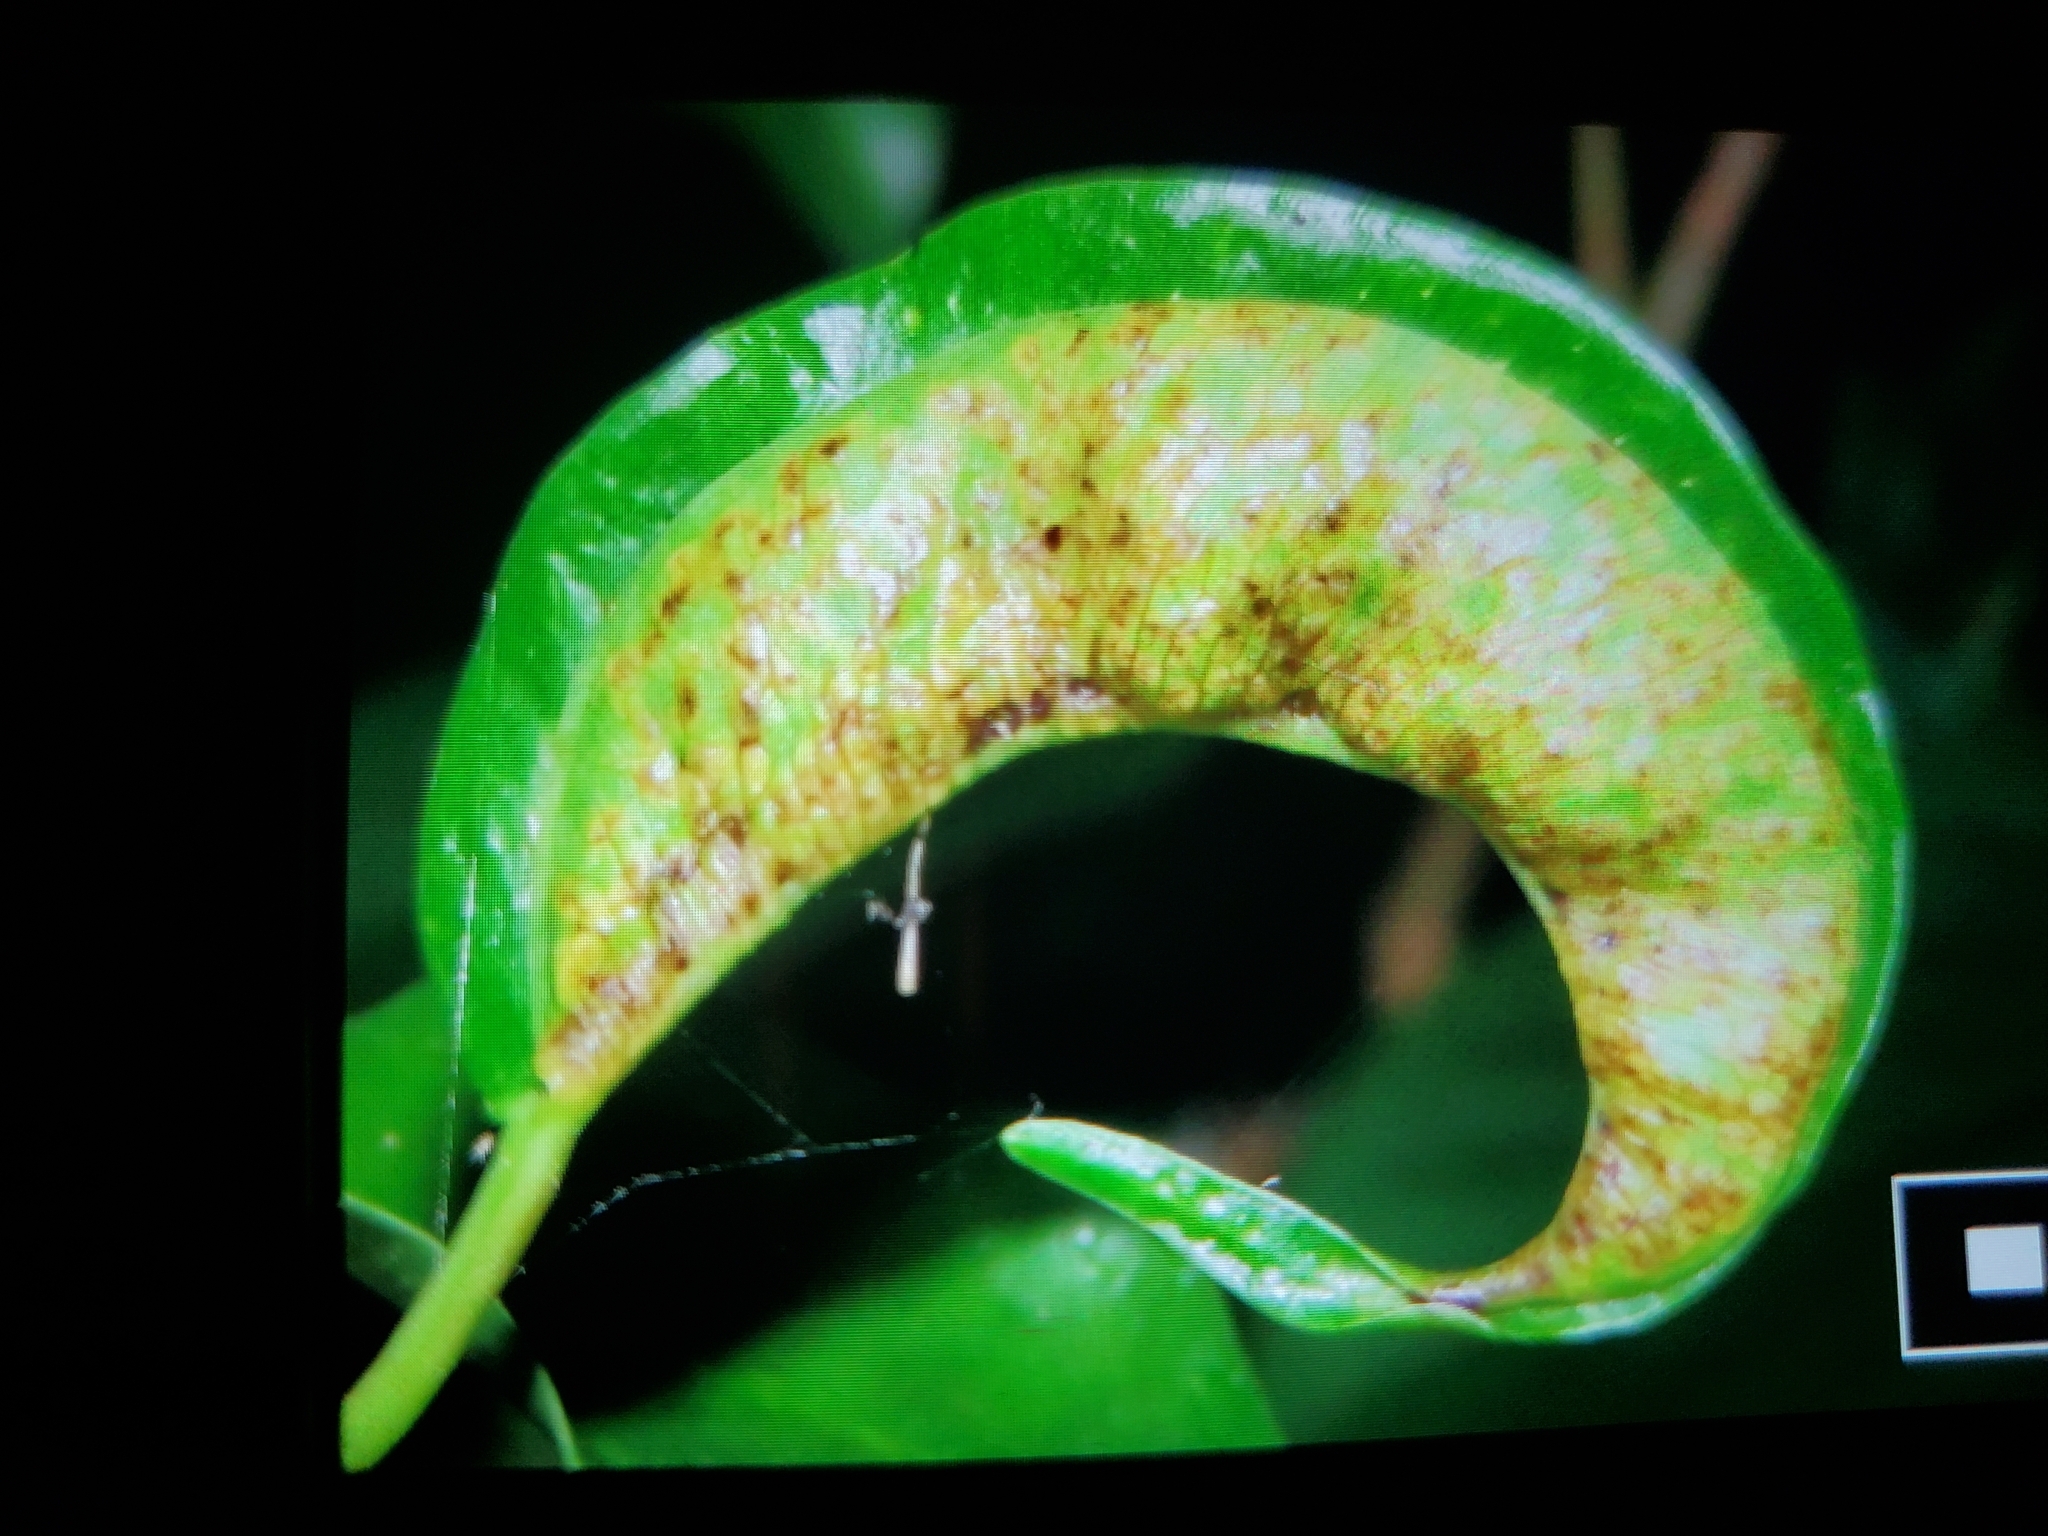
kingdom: Animalia
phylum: Arthropoda
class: Insecta
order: Thysanoptera
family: Phlaeothripidae
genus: Gynaikothrips
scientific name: Gynaikothrips uzeli
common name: Leaf-gall thrips
